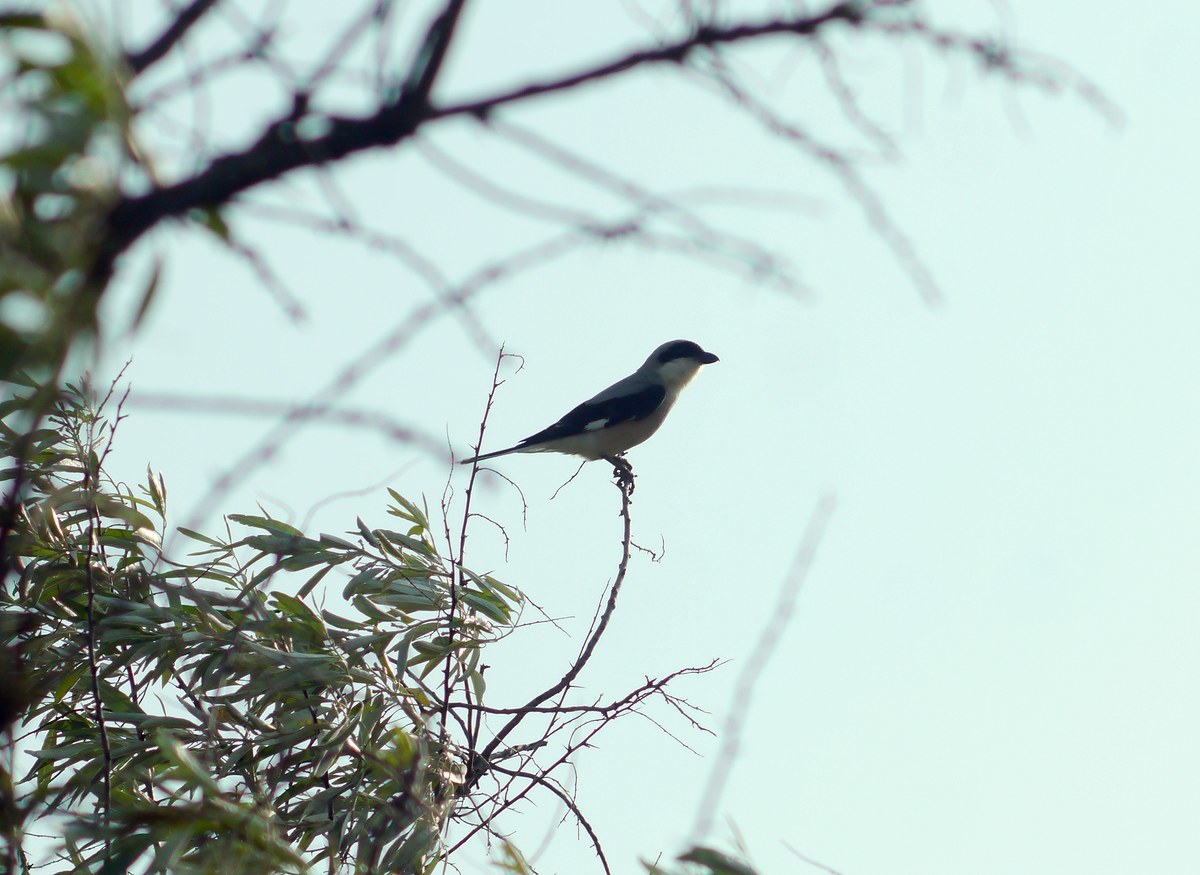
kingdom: Animalia
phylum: Chordata
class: Aves
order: Passeriformes
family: Laniidae
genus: Lanius
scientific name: Lanius minor
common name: Lesser grey shrike
